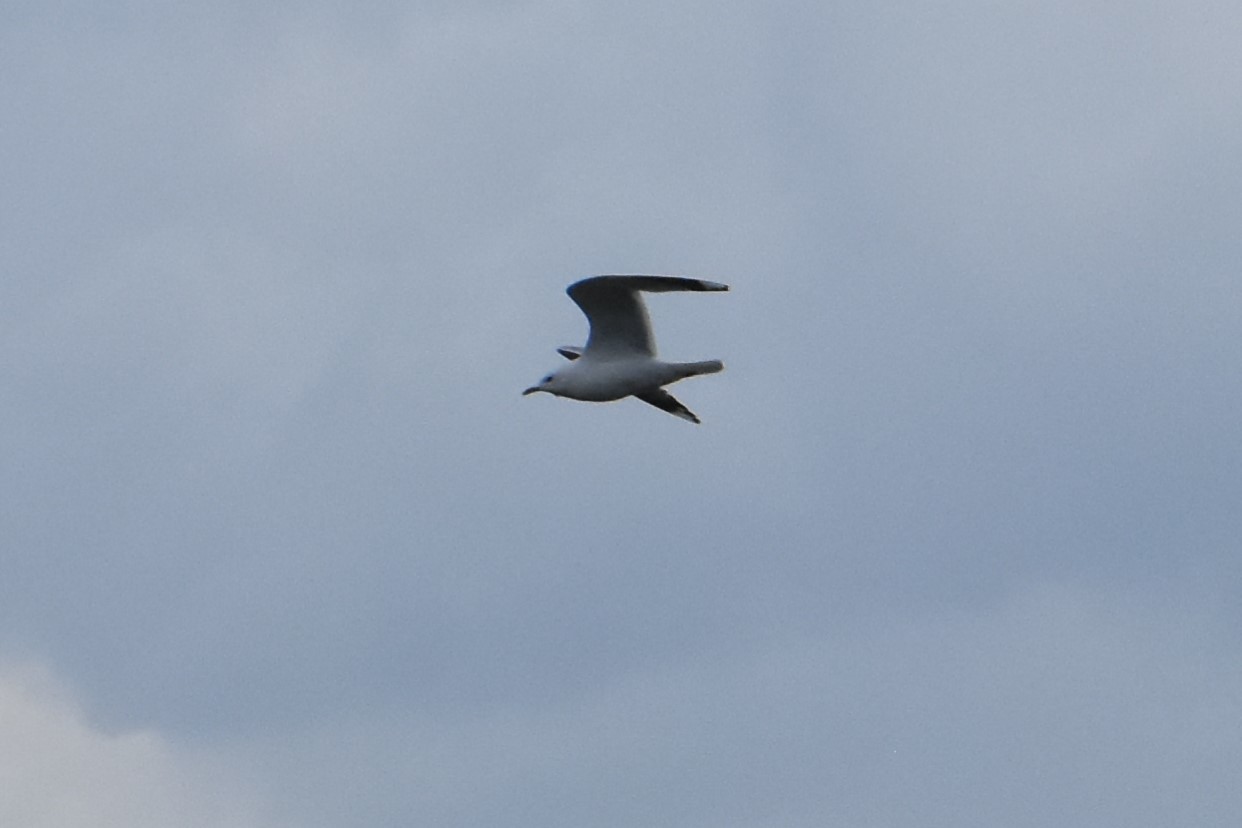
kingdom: Animalia
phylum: Chordata
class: Aves
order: Charadriiformes
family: Laridae
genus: Larus
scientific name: Larus canus
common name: Mew gull
